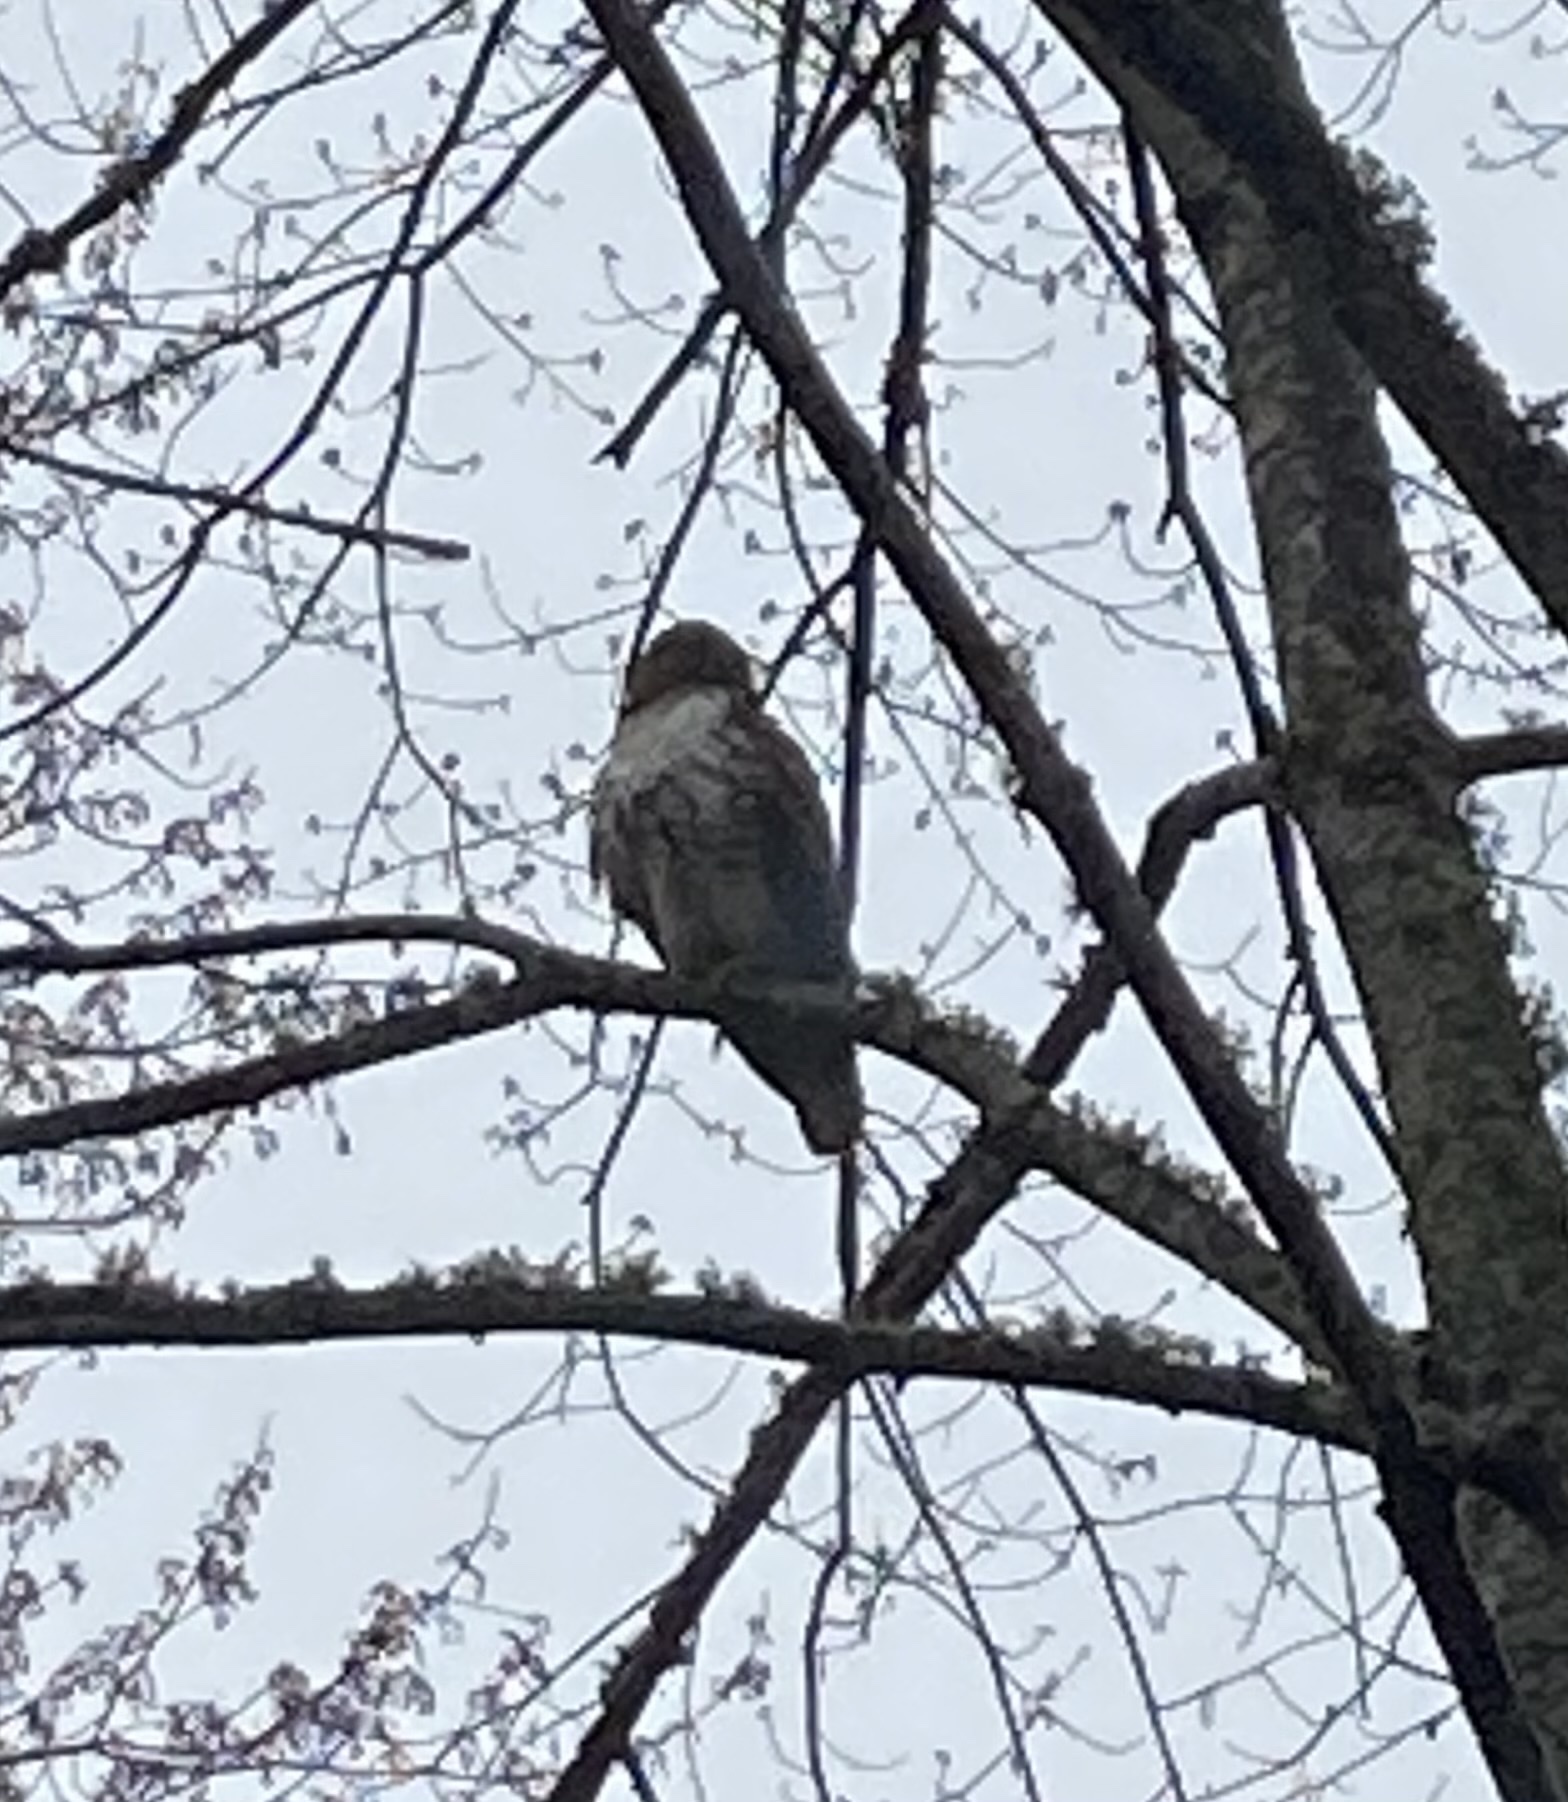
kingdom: Animalia
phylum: Chordata
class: Aves
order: Accipitriformes
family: Accipitridae
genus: Buteo
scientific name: Buteo jamaicensis
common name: Red-tailed hawk
